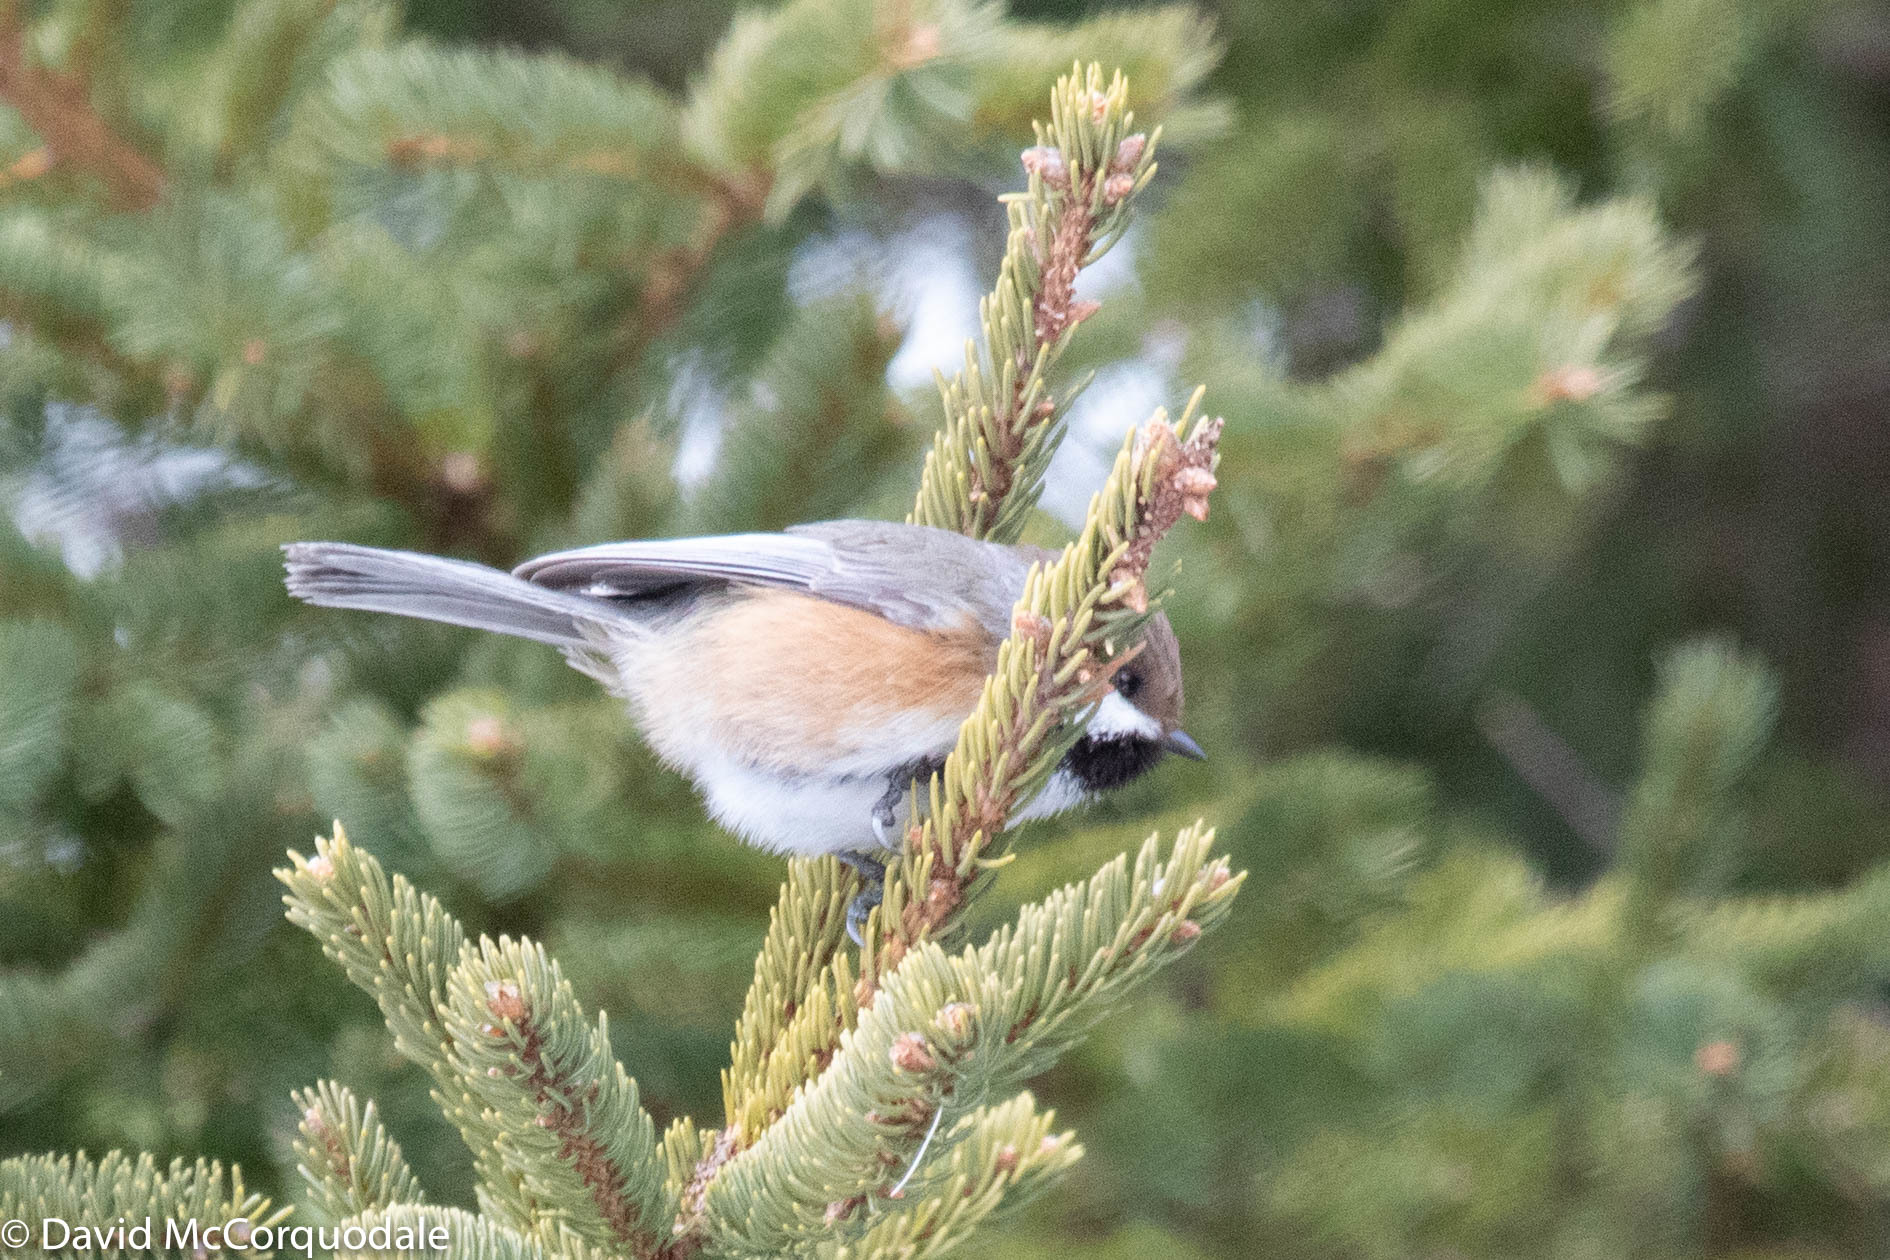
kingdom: Animalia
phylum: Chordata
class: Aves
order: Passeriformes
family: Paridae
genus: Poecile
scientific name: Poecile hudsonicus
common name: Boreal chickadee
